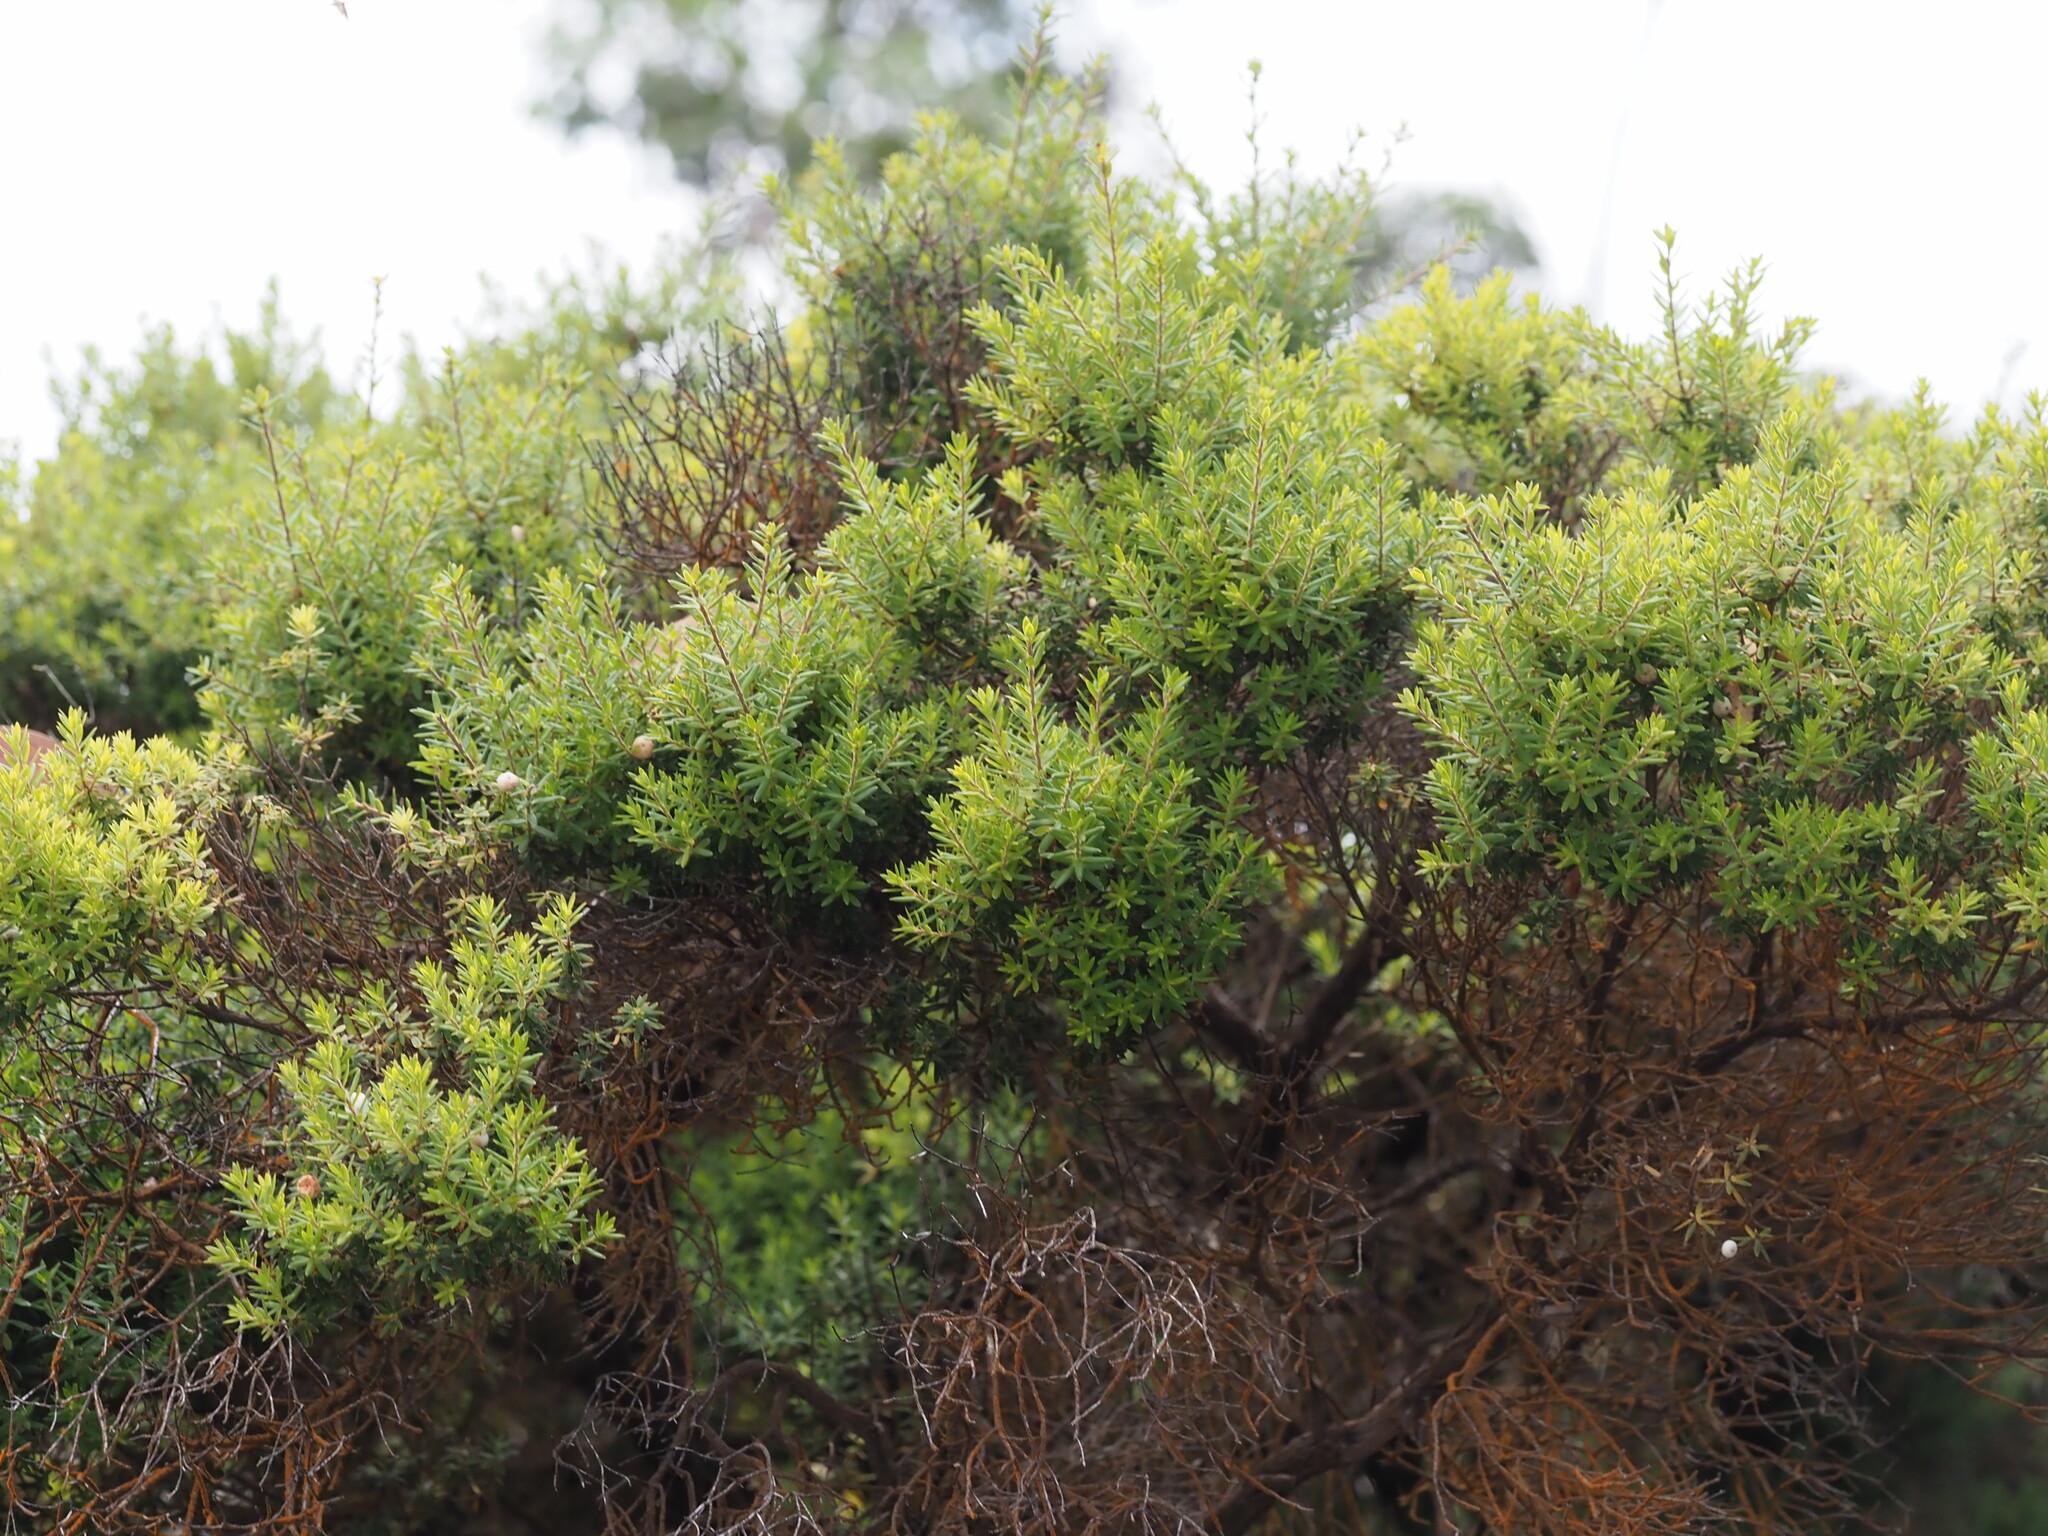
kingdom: Plantae
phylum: Tracheophyta
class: Magnoliopsida
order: Ericales
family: Ericaceae
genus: Leptecophylla
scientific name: Leptecophylla tameiameiae
